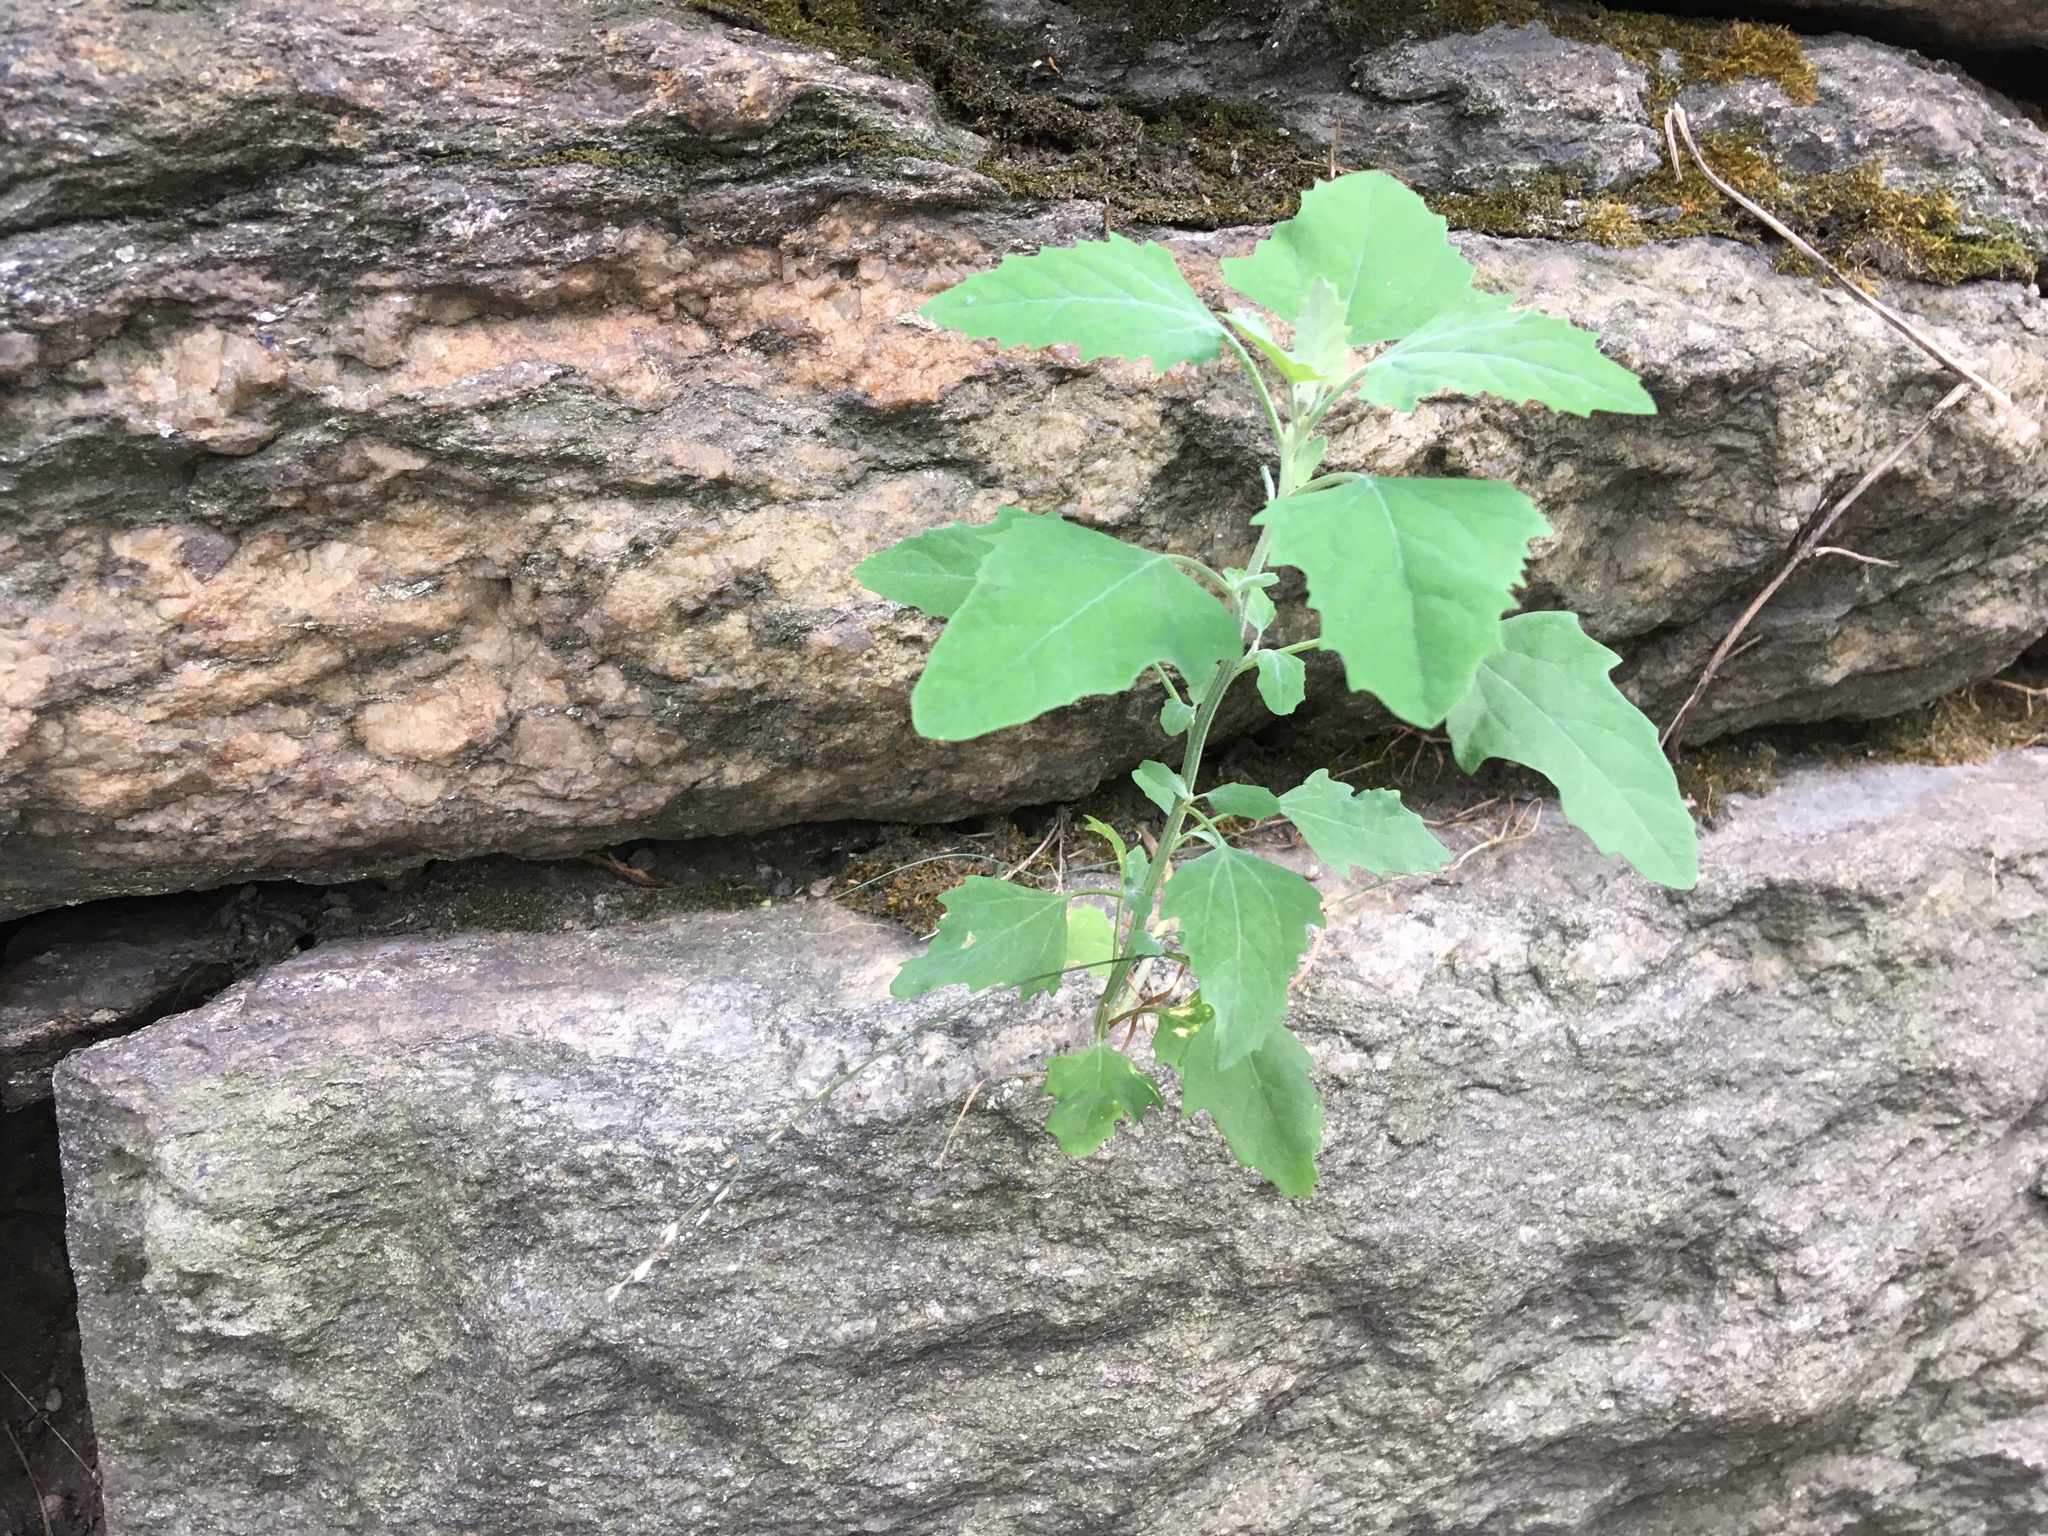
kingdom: Plantae
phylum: Tracheophyta
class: Magnoliopsida
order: Caryophyllales
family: Amaranthaceae
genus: Chenopodium
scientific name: Chenopodium album
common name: Fat-hen
